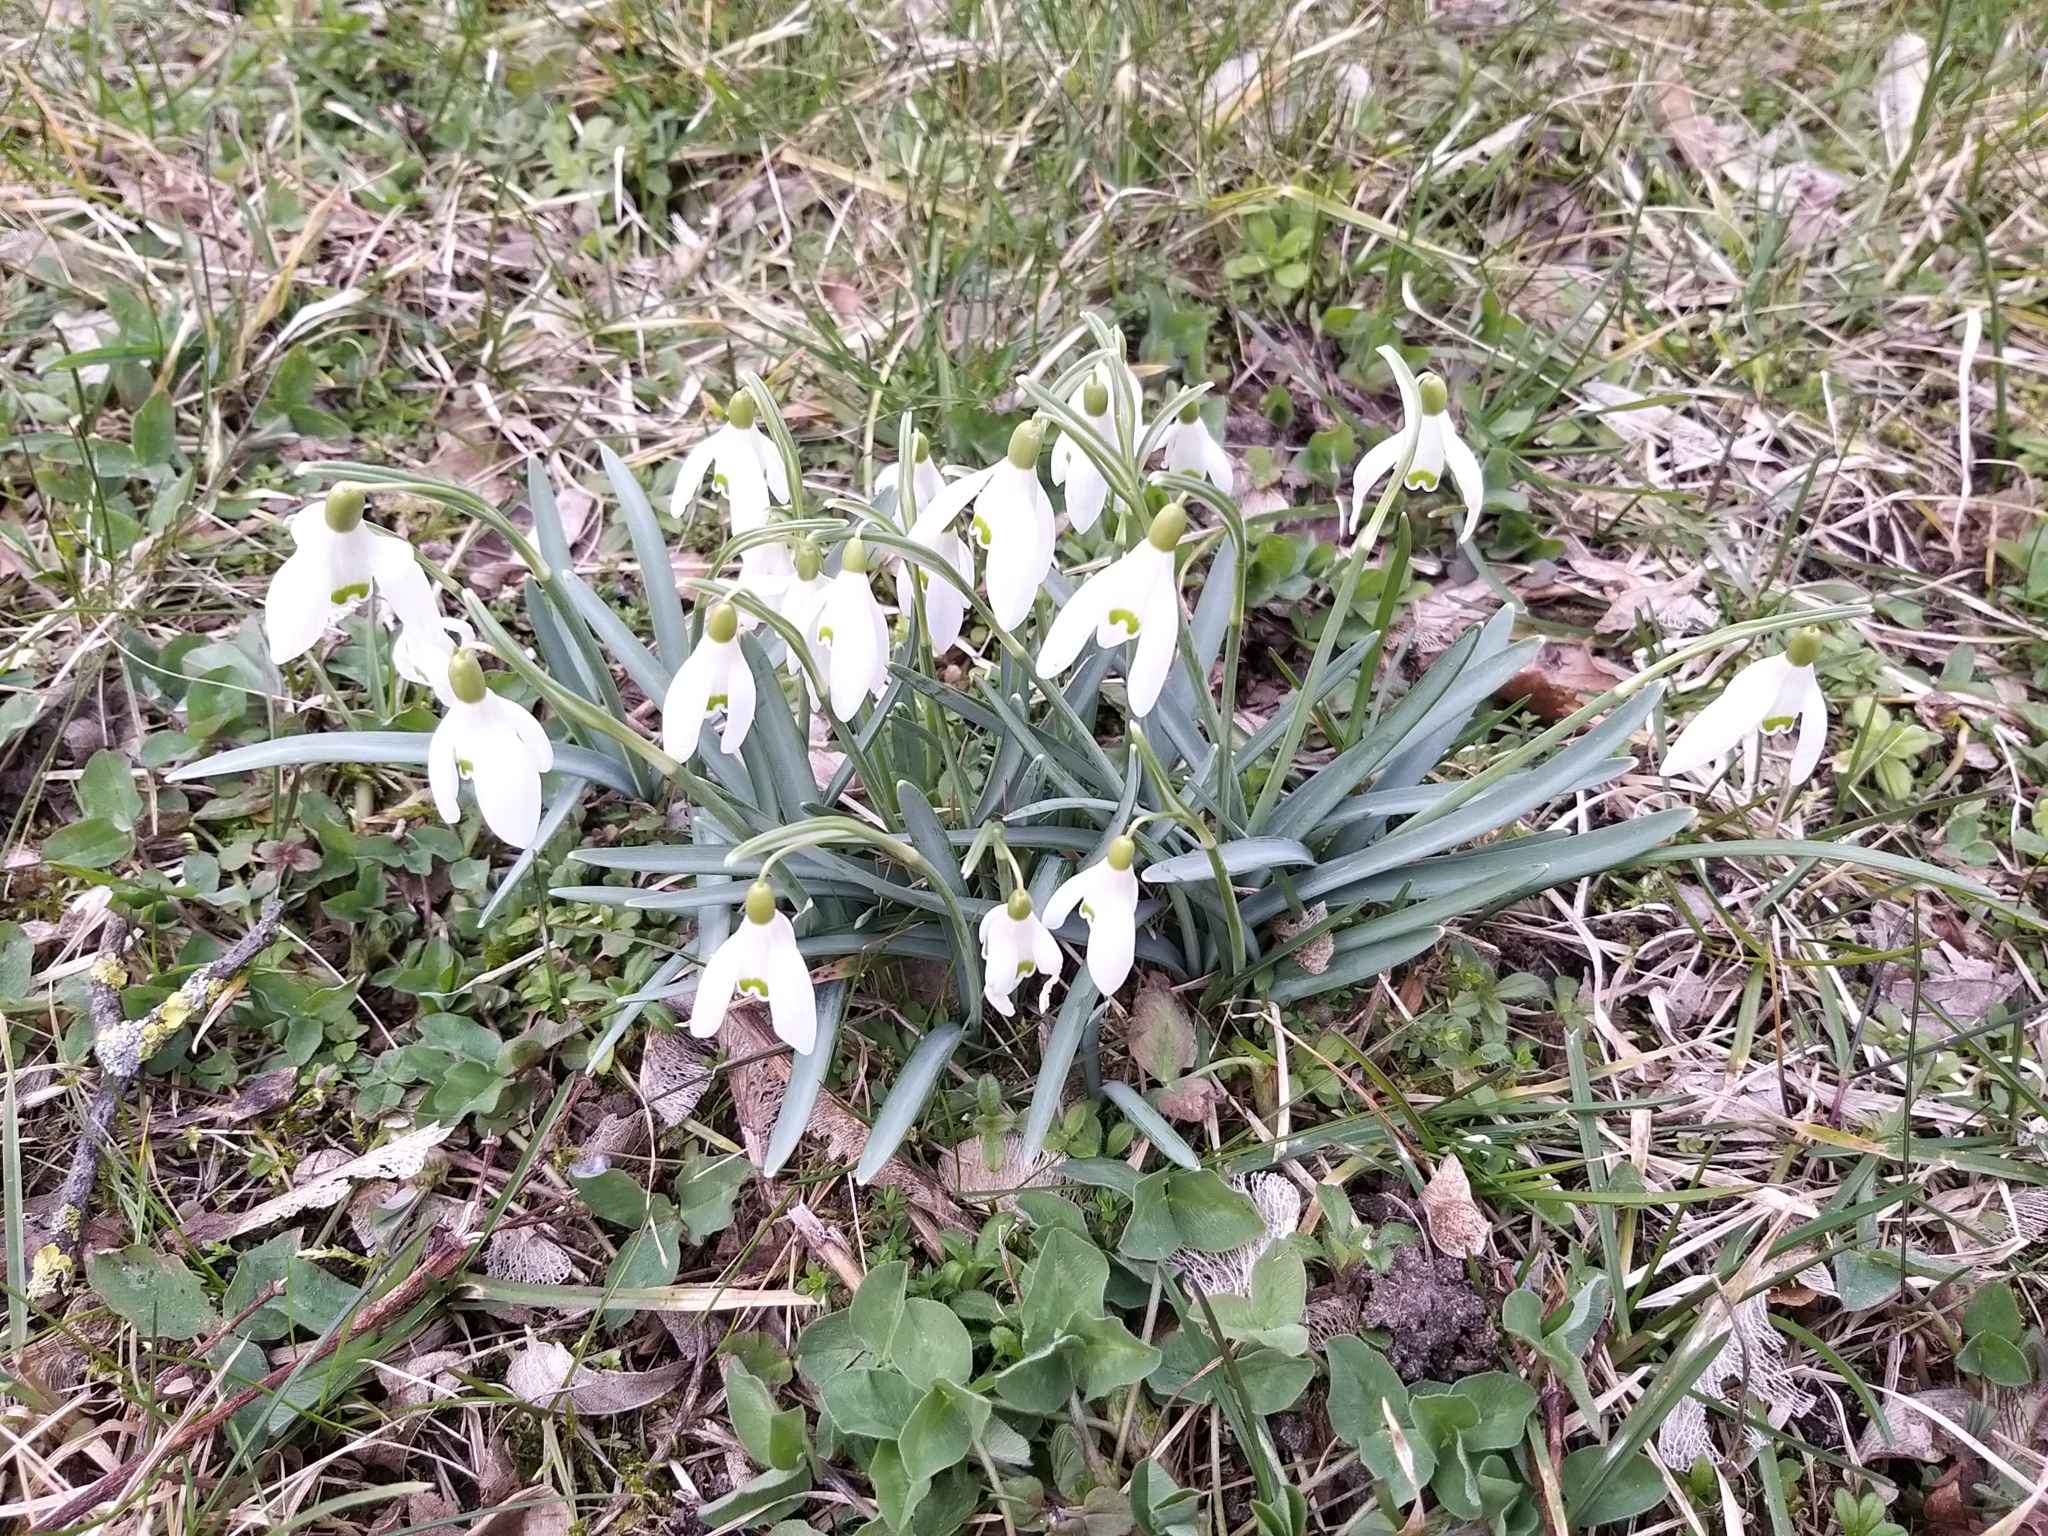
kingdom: Plantae
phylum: Tracheophyta
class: Liliopsida
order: Asparagales
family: Amaryllidaceae
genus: Galanthus
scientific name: Galanthus nivalis
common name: Snowdrop
